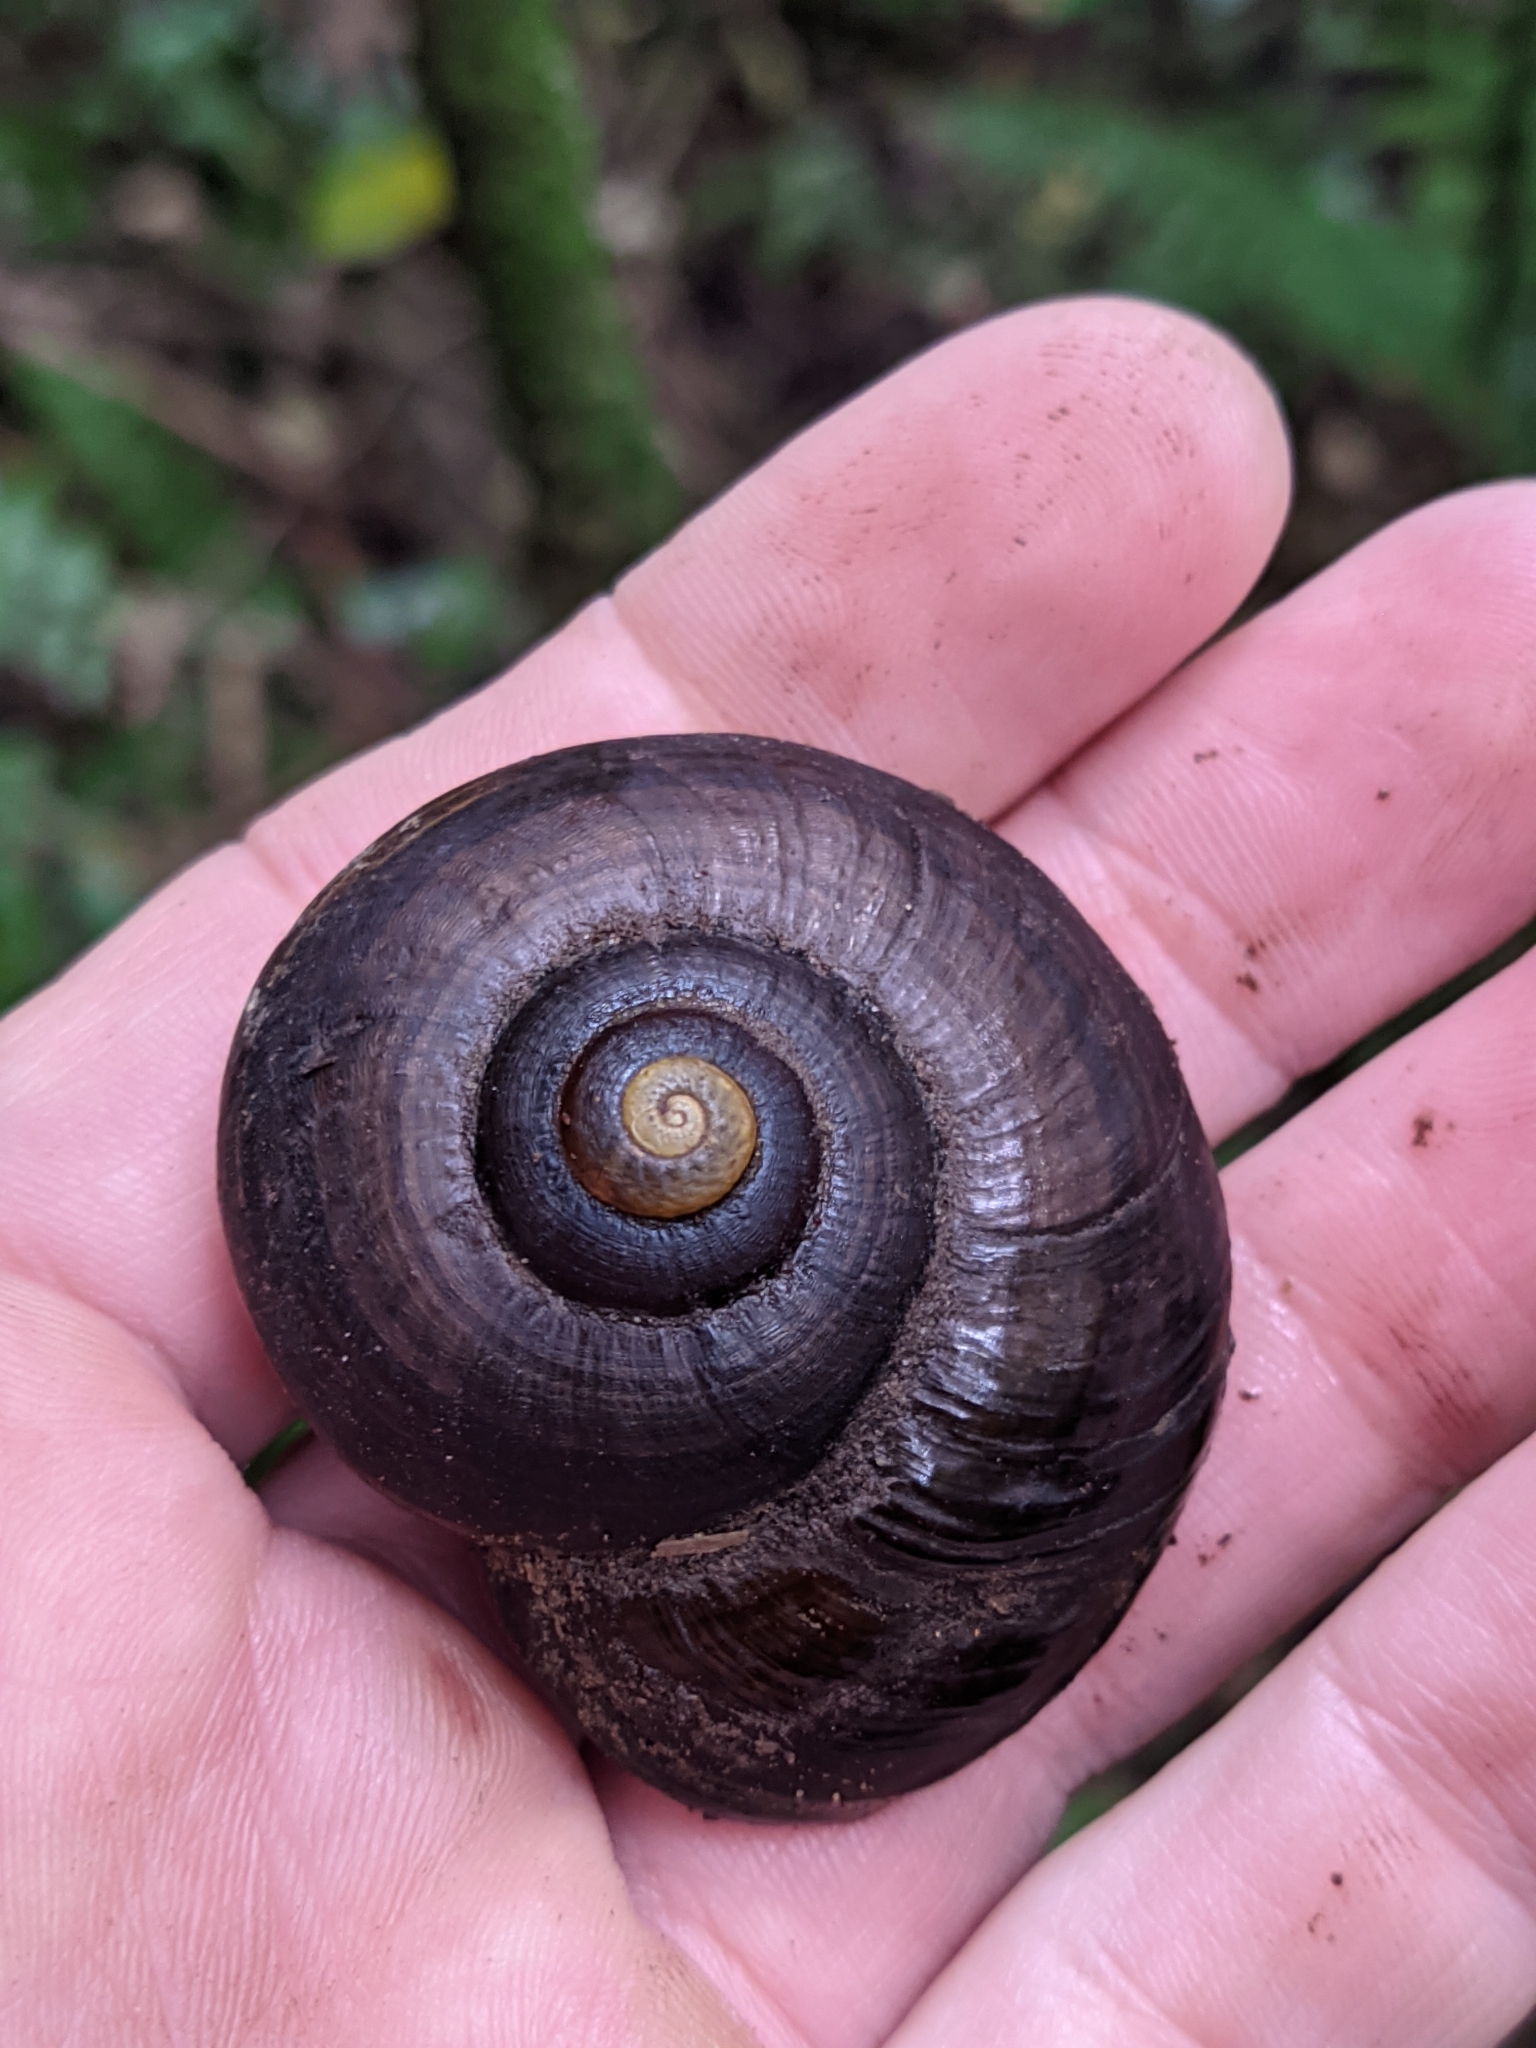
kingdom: Animalia
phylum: Mollusca
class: Gastropoda
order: Stylommatophora
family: Rhytididae
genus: Powelliphanta
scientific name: Powelliphanta traversi
